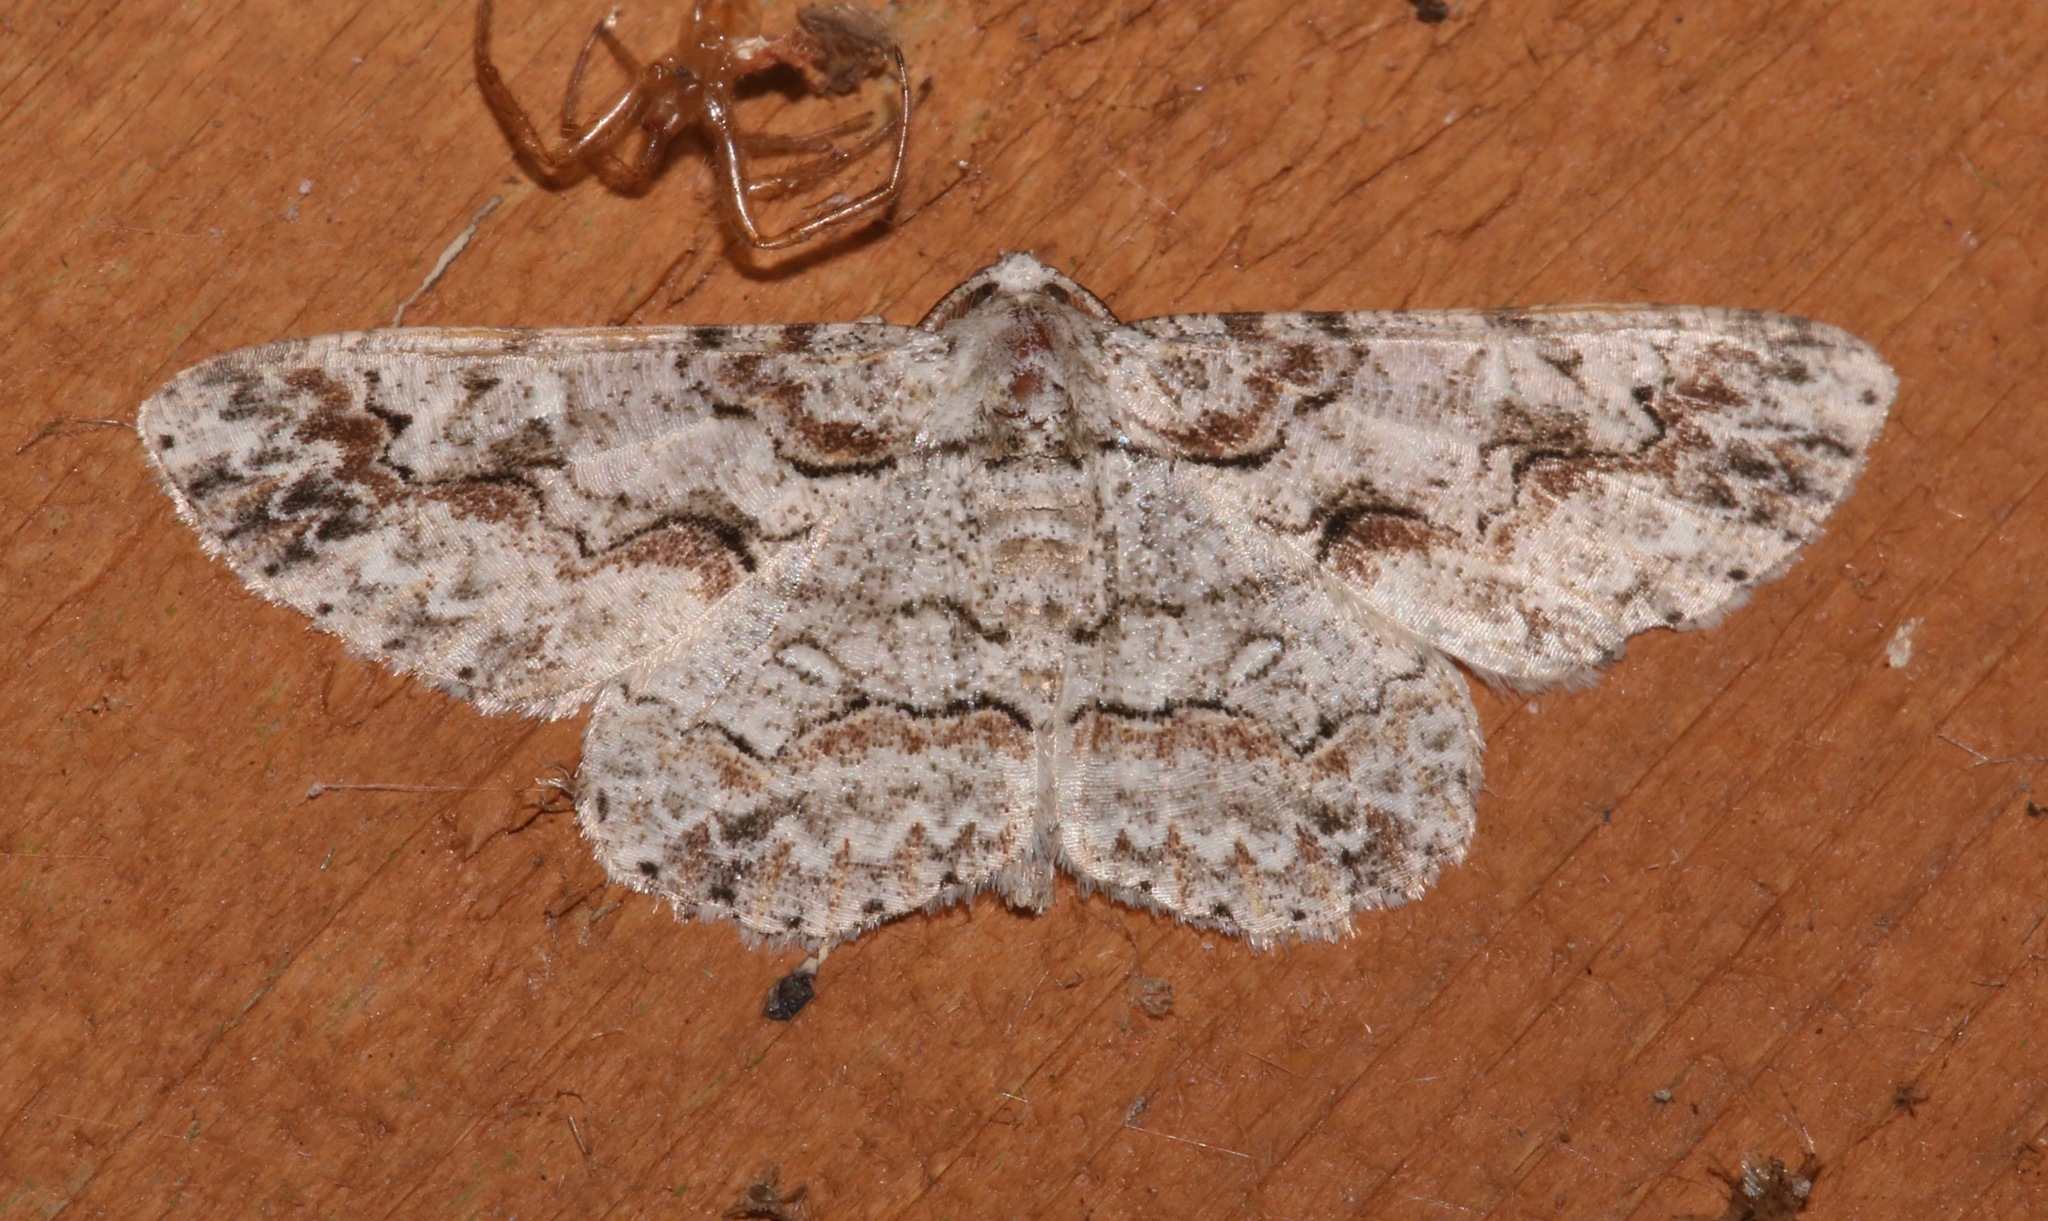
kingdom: Animalia
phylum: Arthropoda
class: Insecta
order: Lepidoptera
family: Geometridae
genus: Iridopsis
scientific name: Iridopsis defectaria
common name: Brown-shaded gray
